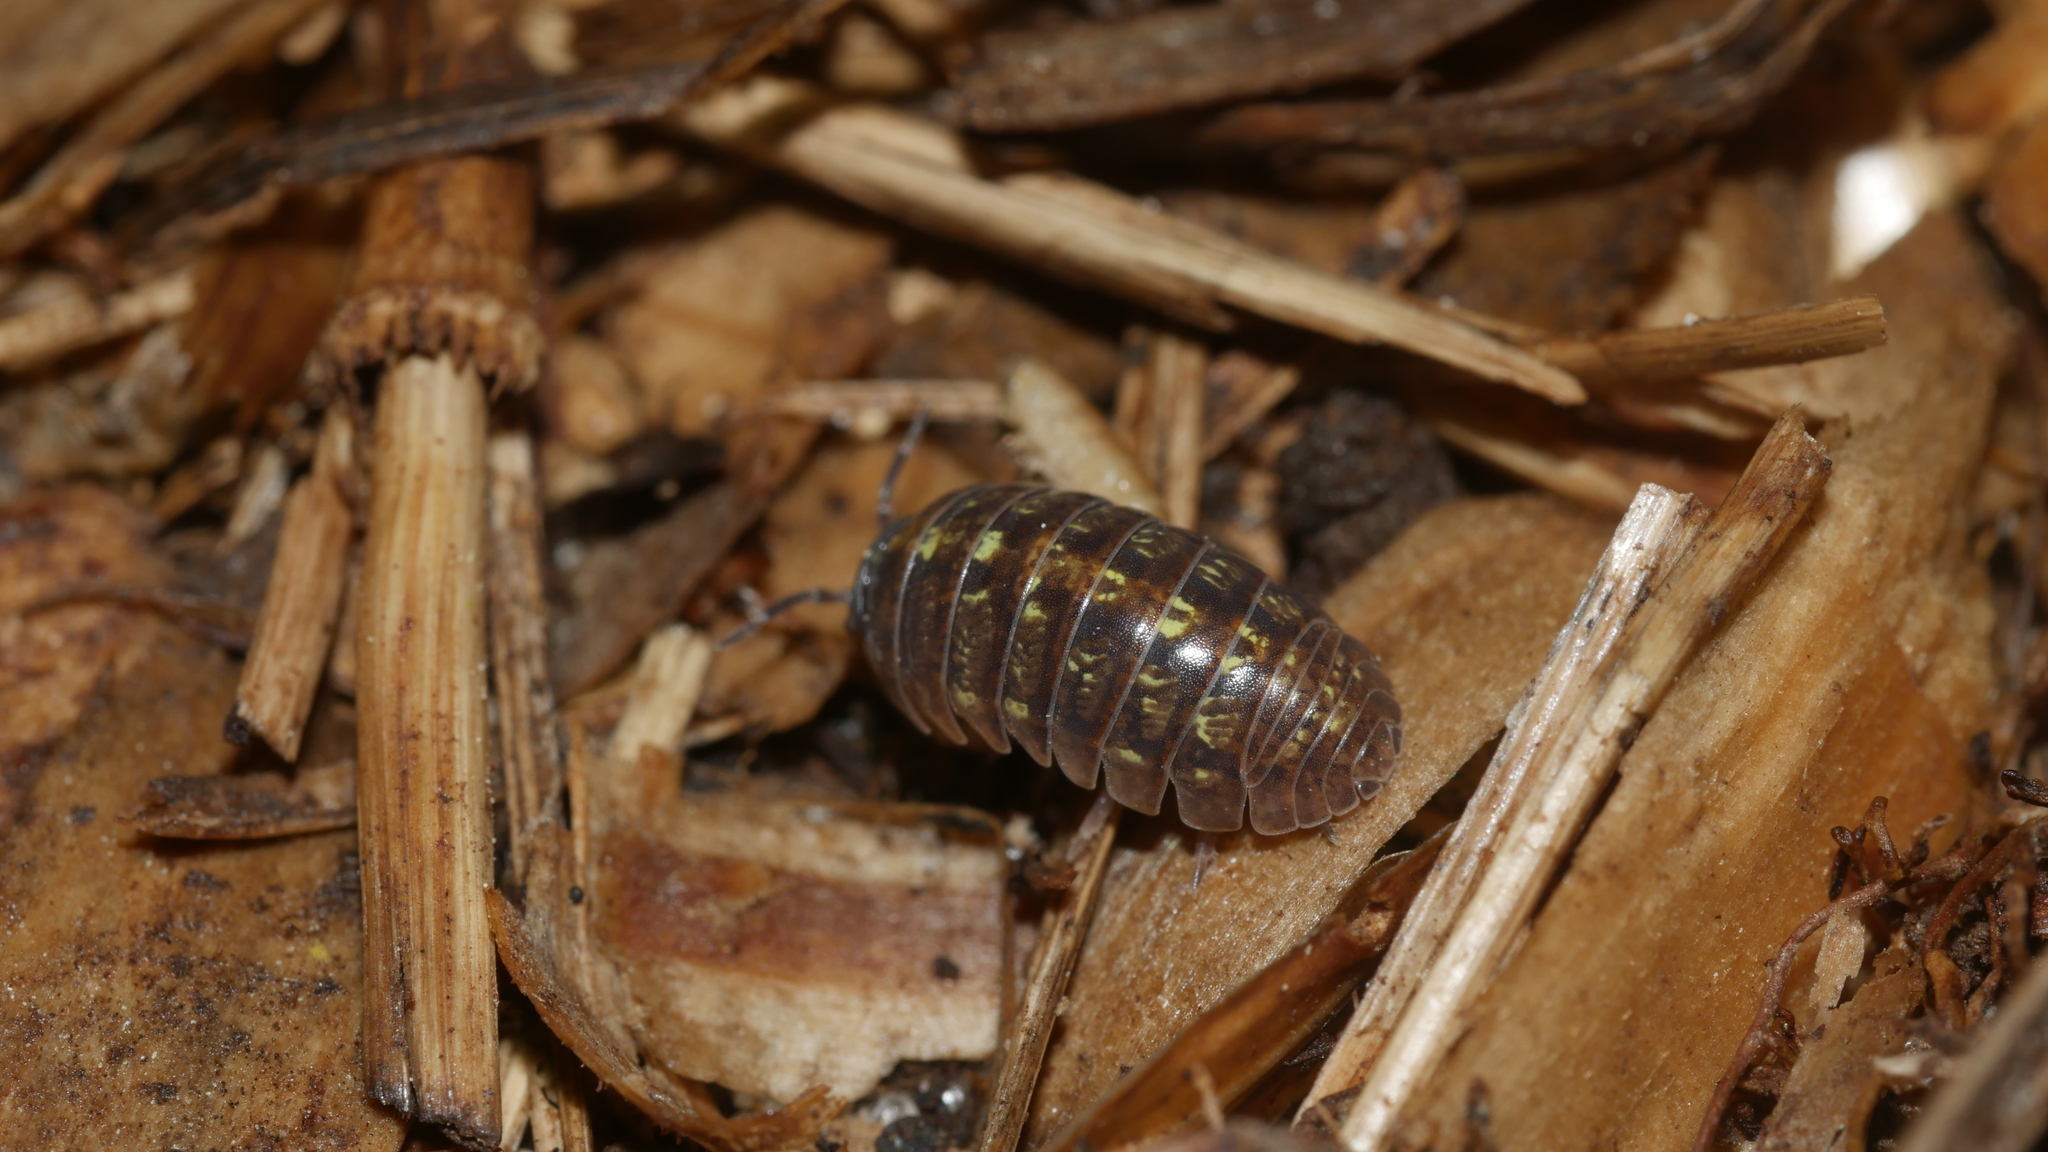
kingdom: Animalia
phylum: Arthropoda
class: Malacostraca
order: Isopoda
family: Armadillidiidae
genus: Armadillidium
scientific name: Armadillidium vulgare
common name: Common pill woodlouse
